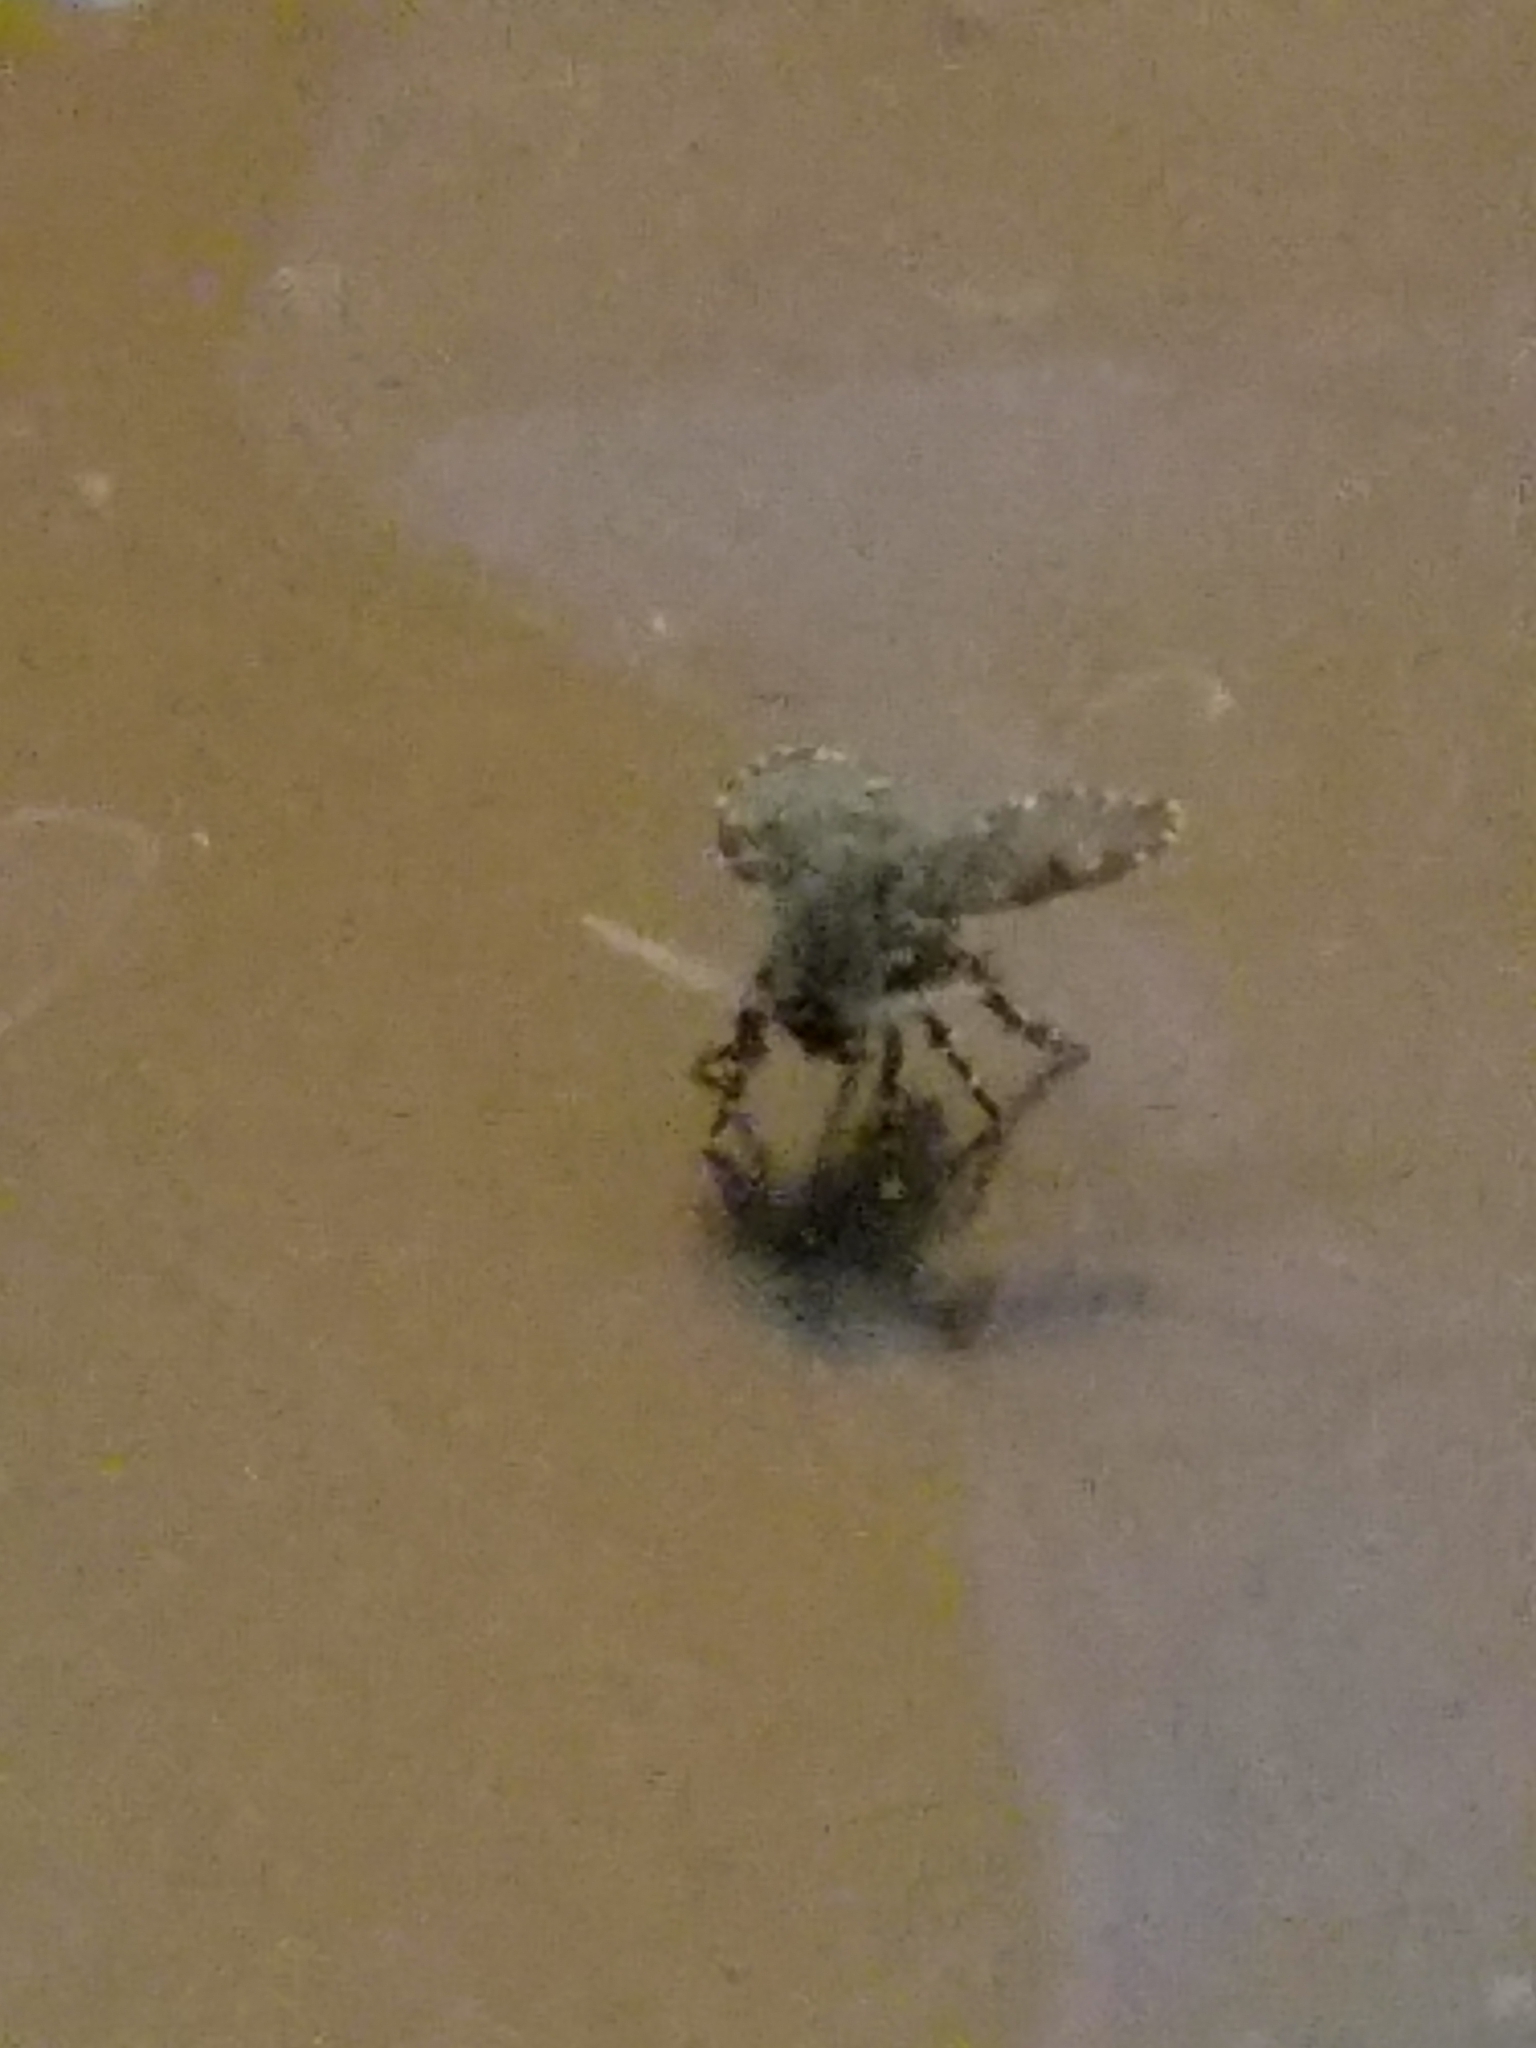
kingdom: Animalia
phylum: Arthropoda
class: Insecta
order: Diptera
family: Psychodidae
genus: Clogmia
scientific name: Clogmia albipunctatus
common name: White-spotted moth fly
